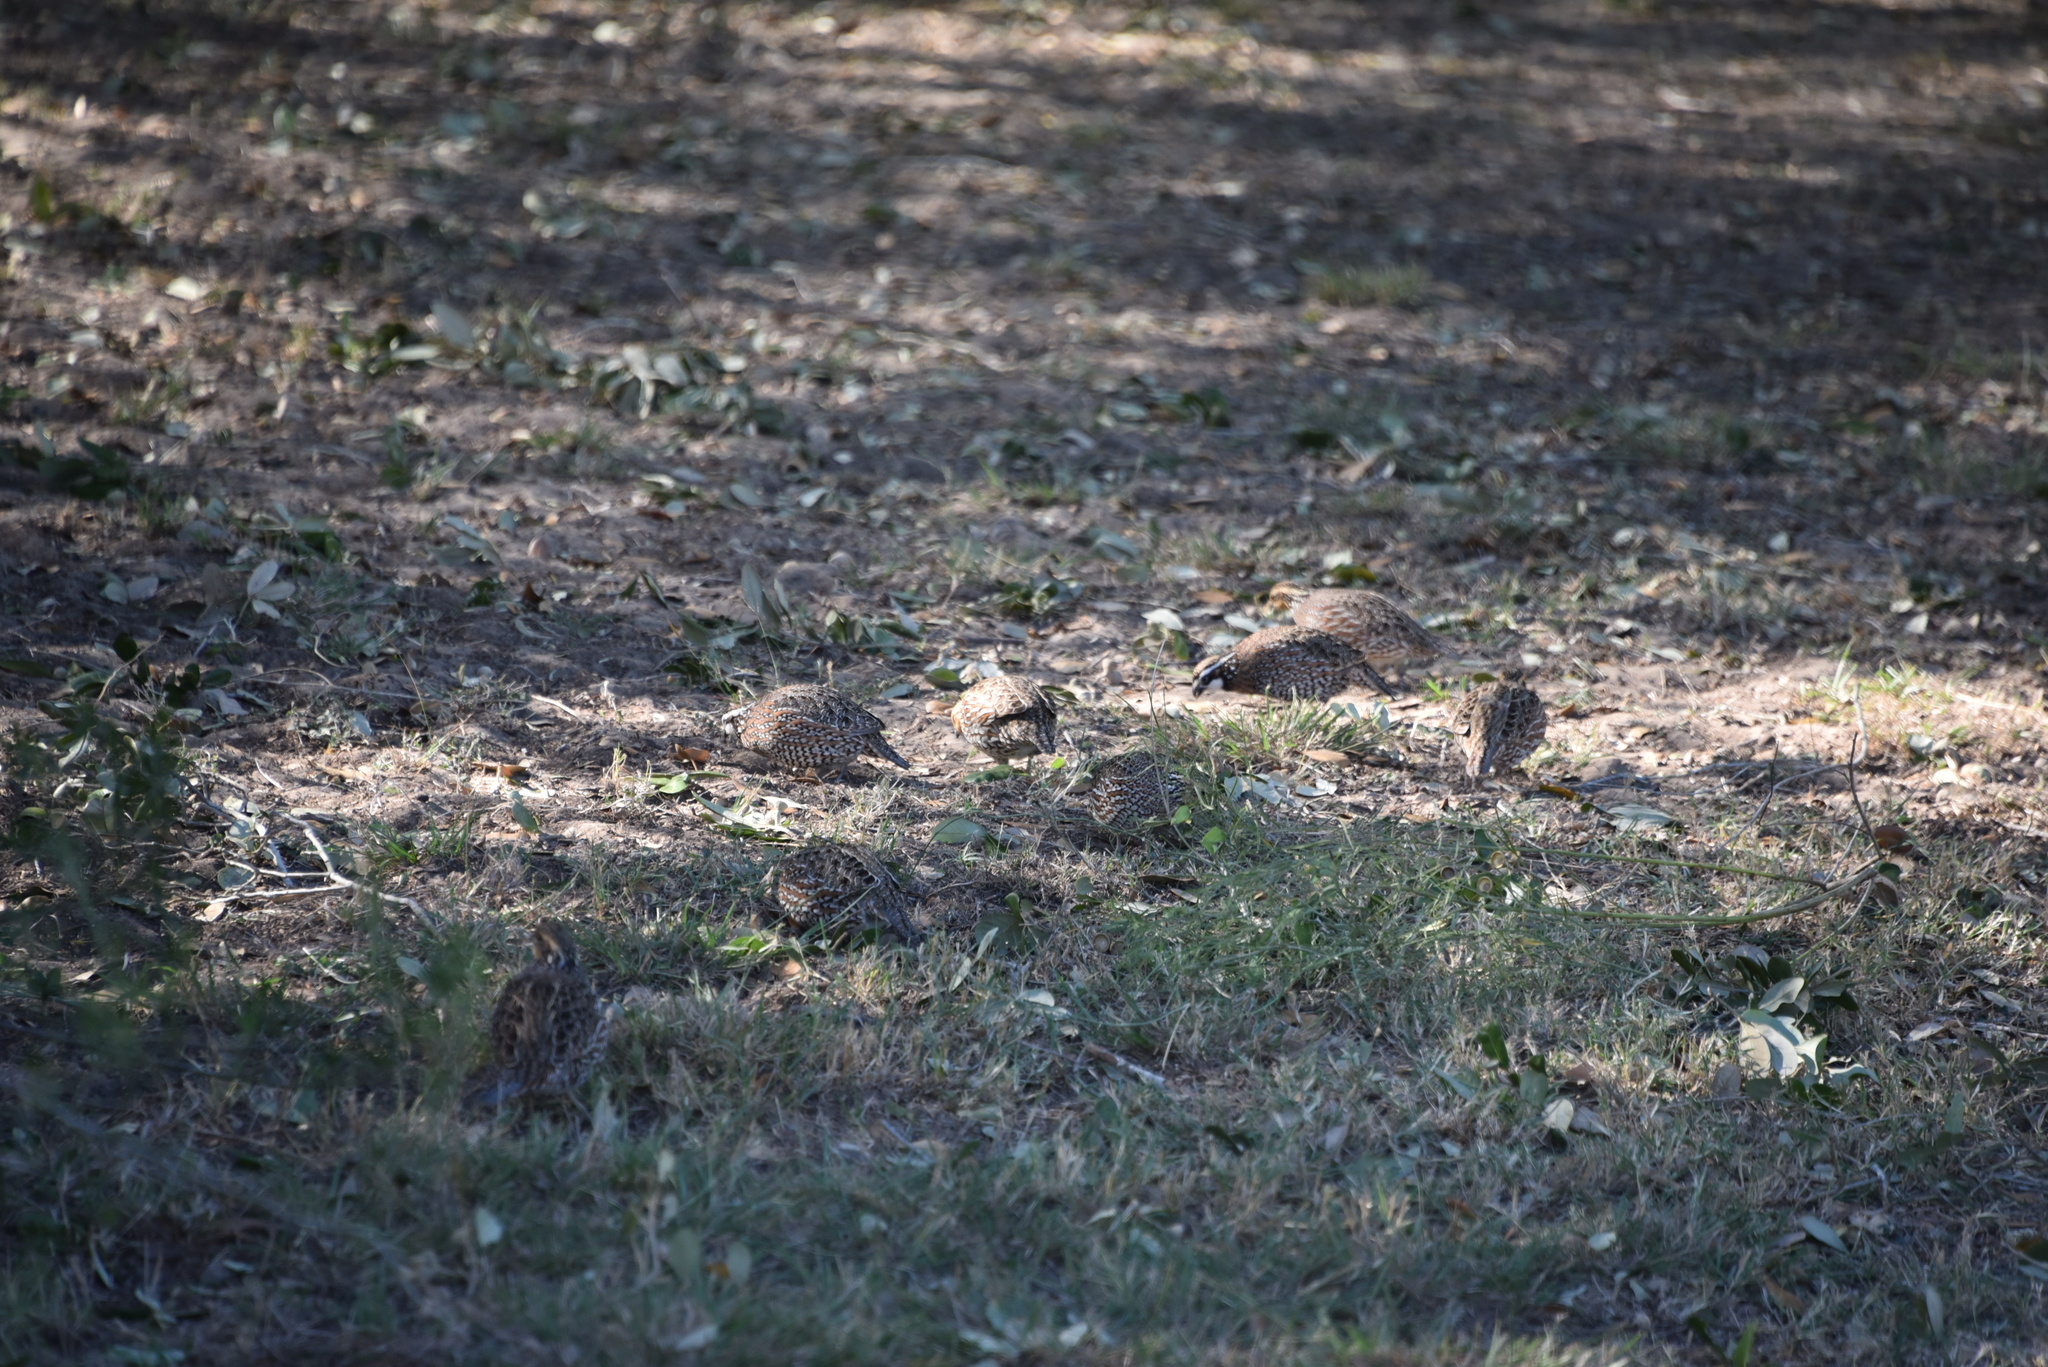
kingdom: Animalia
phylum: Chordata
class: Aves
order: Galliformes
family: Odontophoridae
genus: Colinus
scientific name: Colinus virginianus
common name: Northern bobwhite
